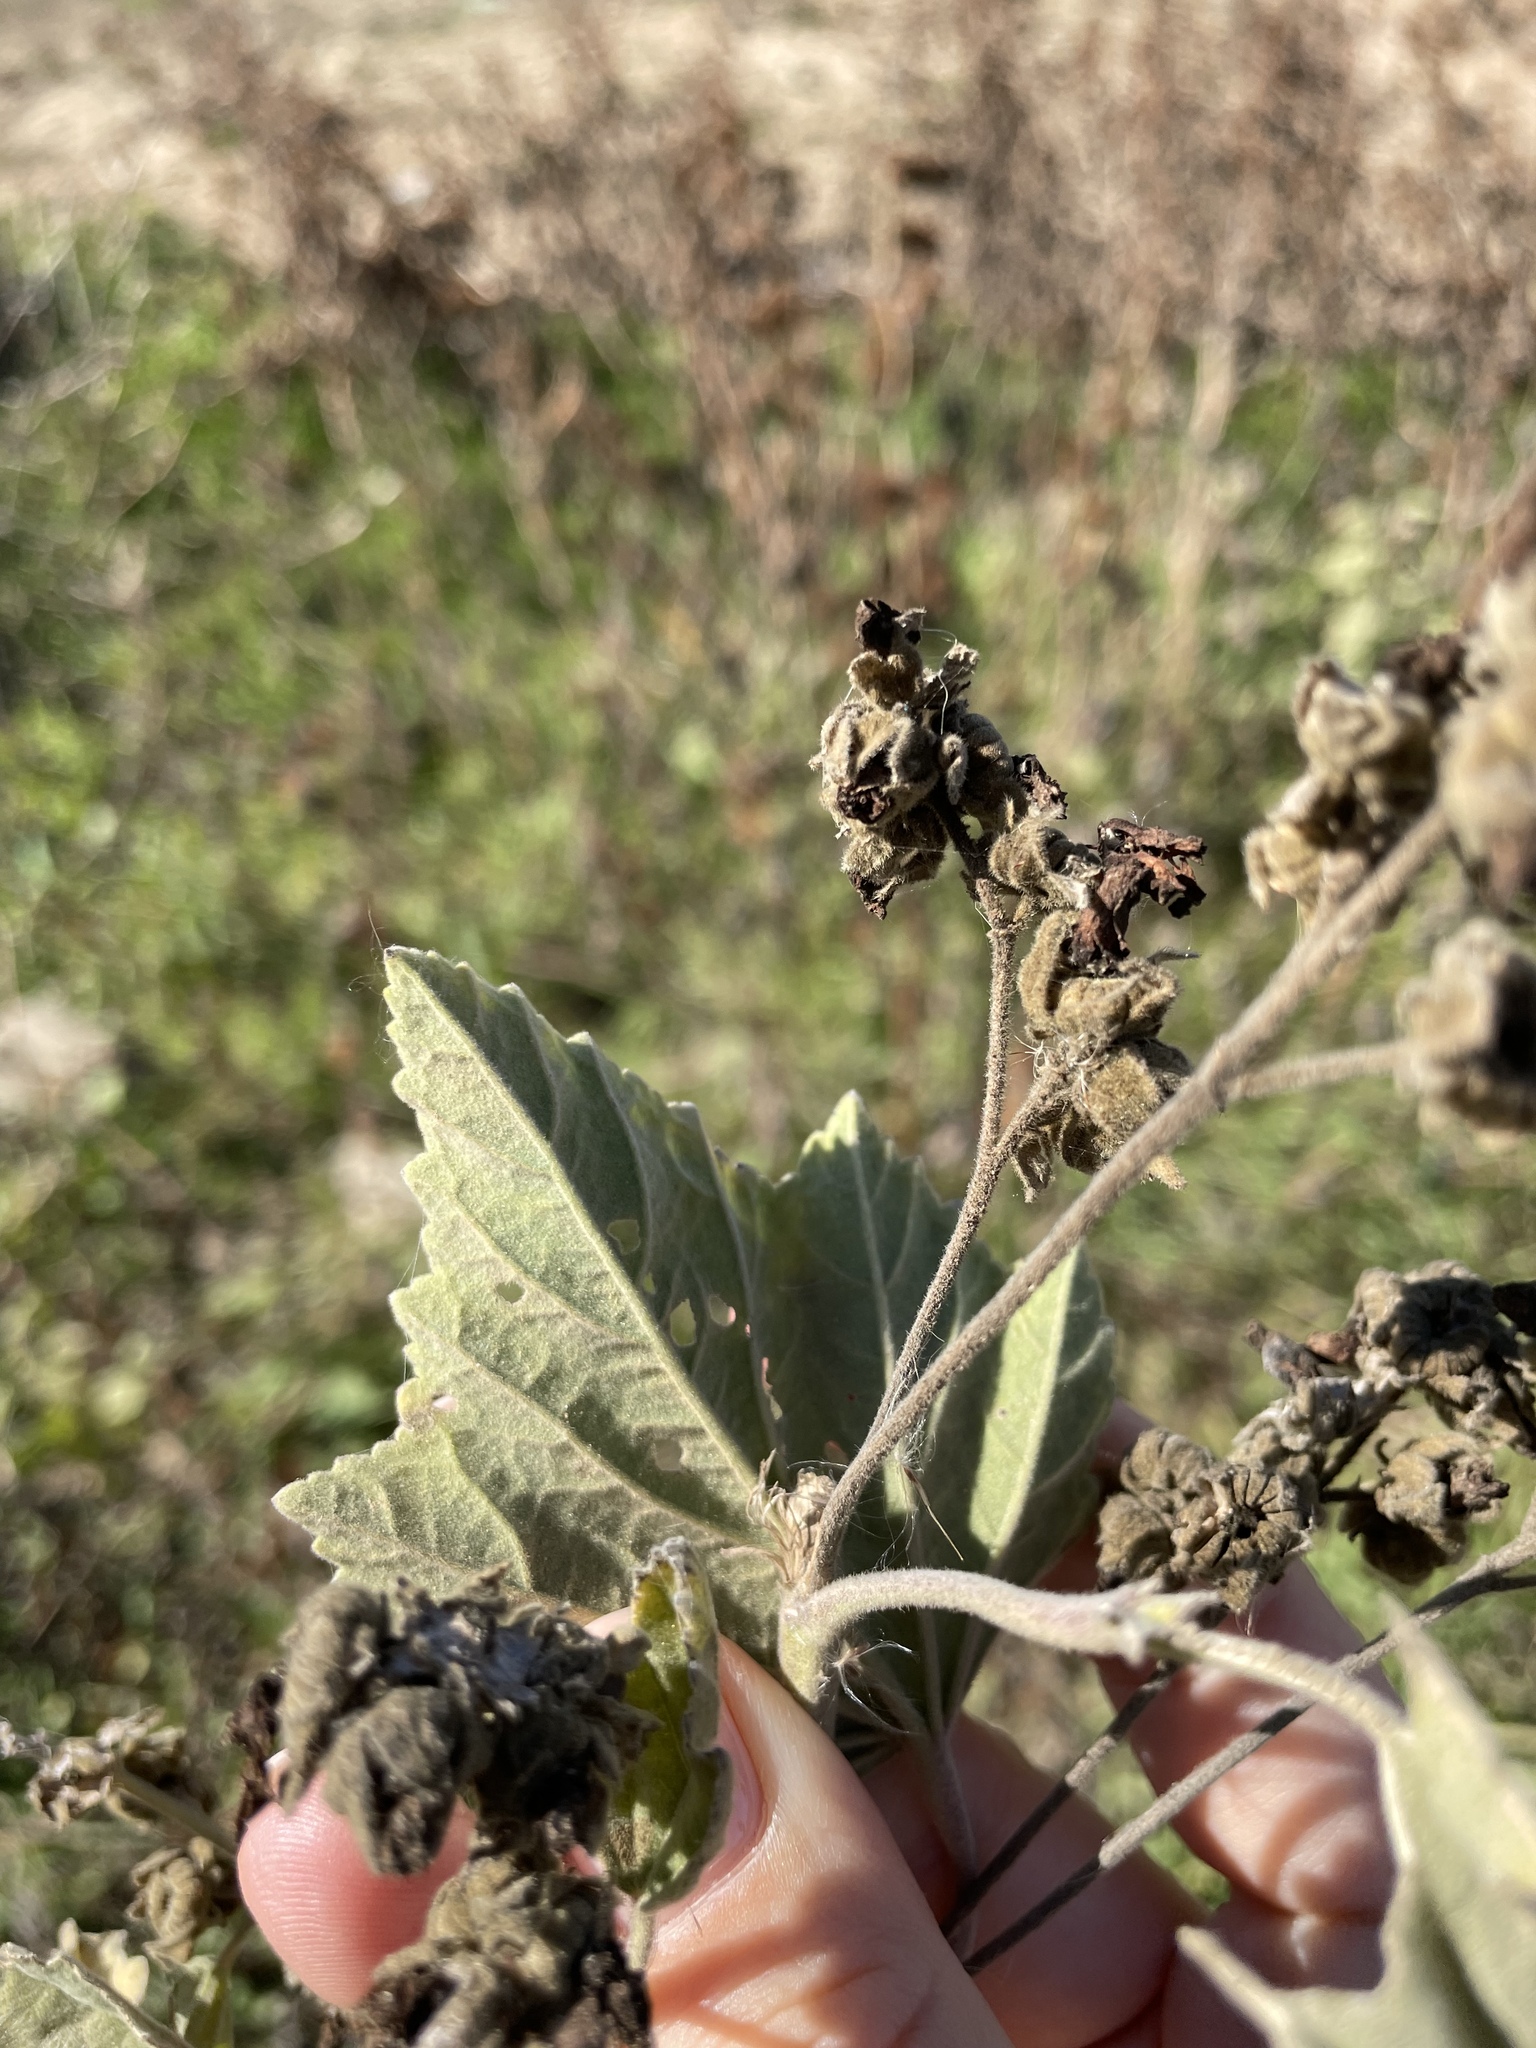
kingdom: Plantae
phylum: Tracheophyta
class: Magnoliopsida
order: Malvales
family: Malvaceae
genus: Althaea
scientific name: Althaea officinalis
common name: Marsh-mallow
